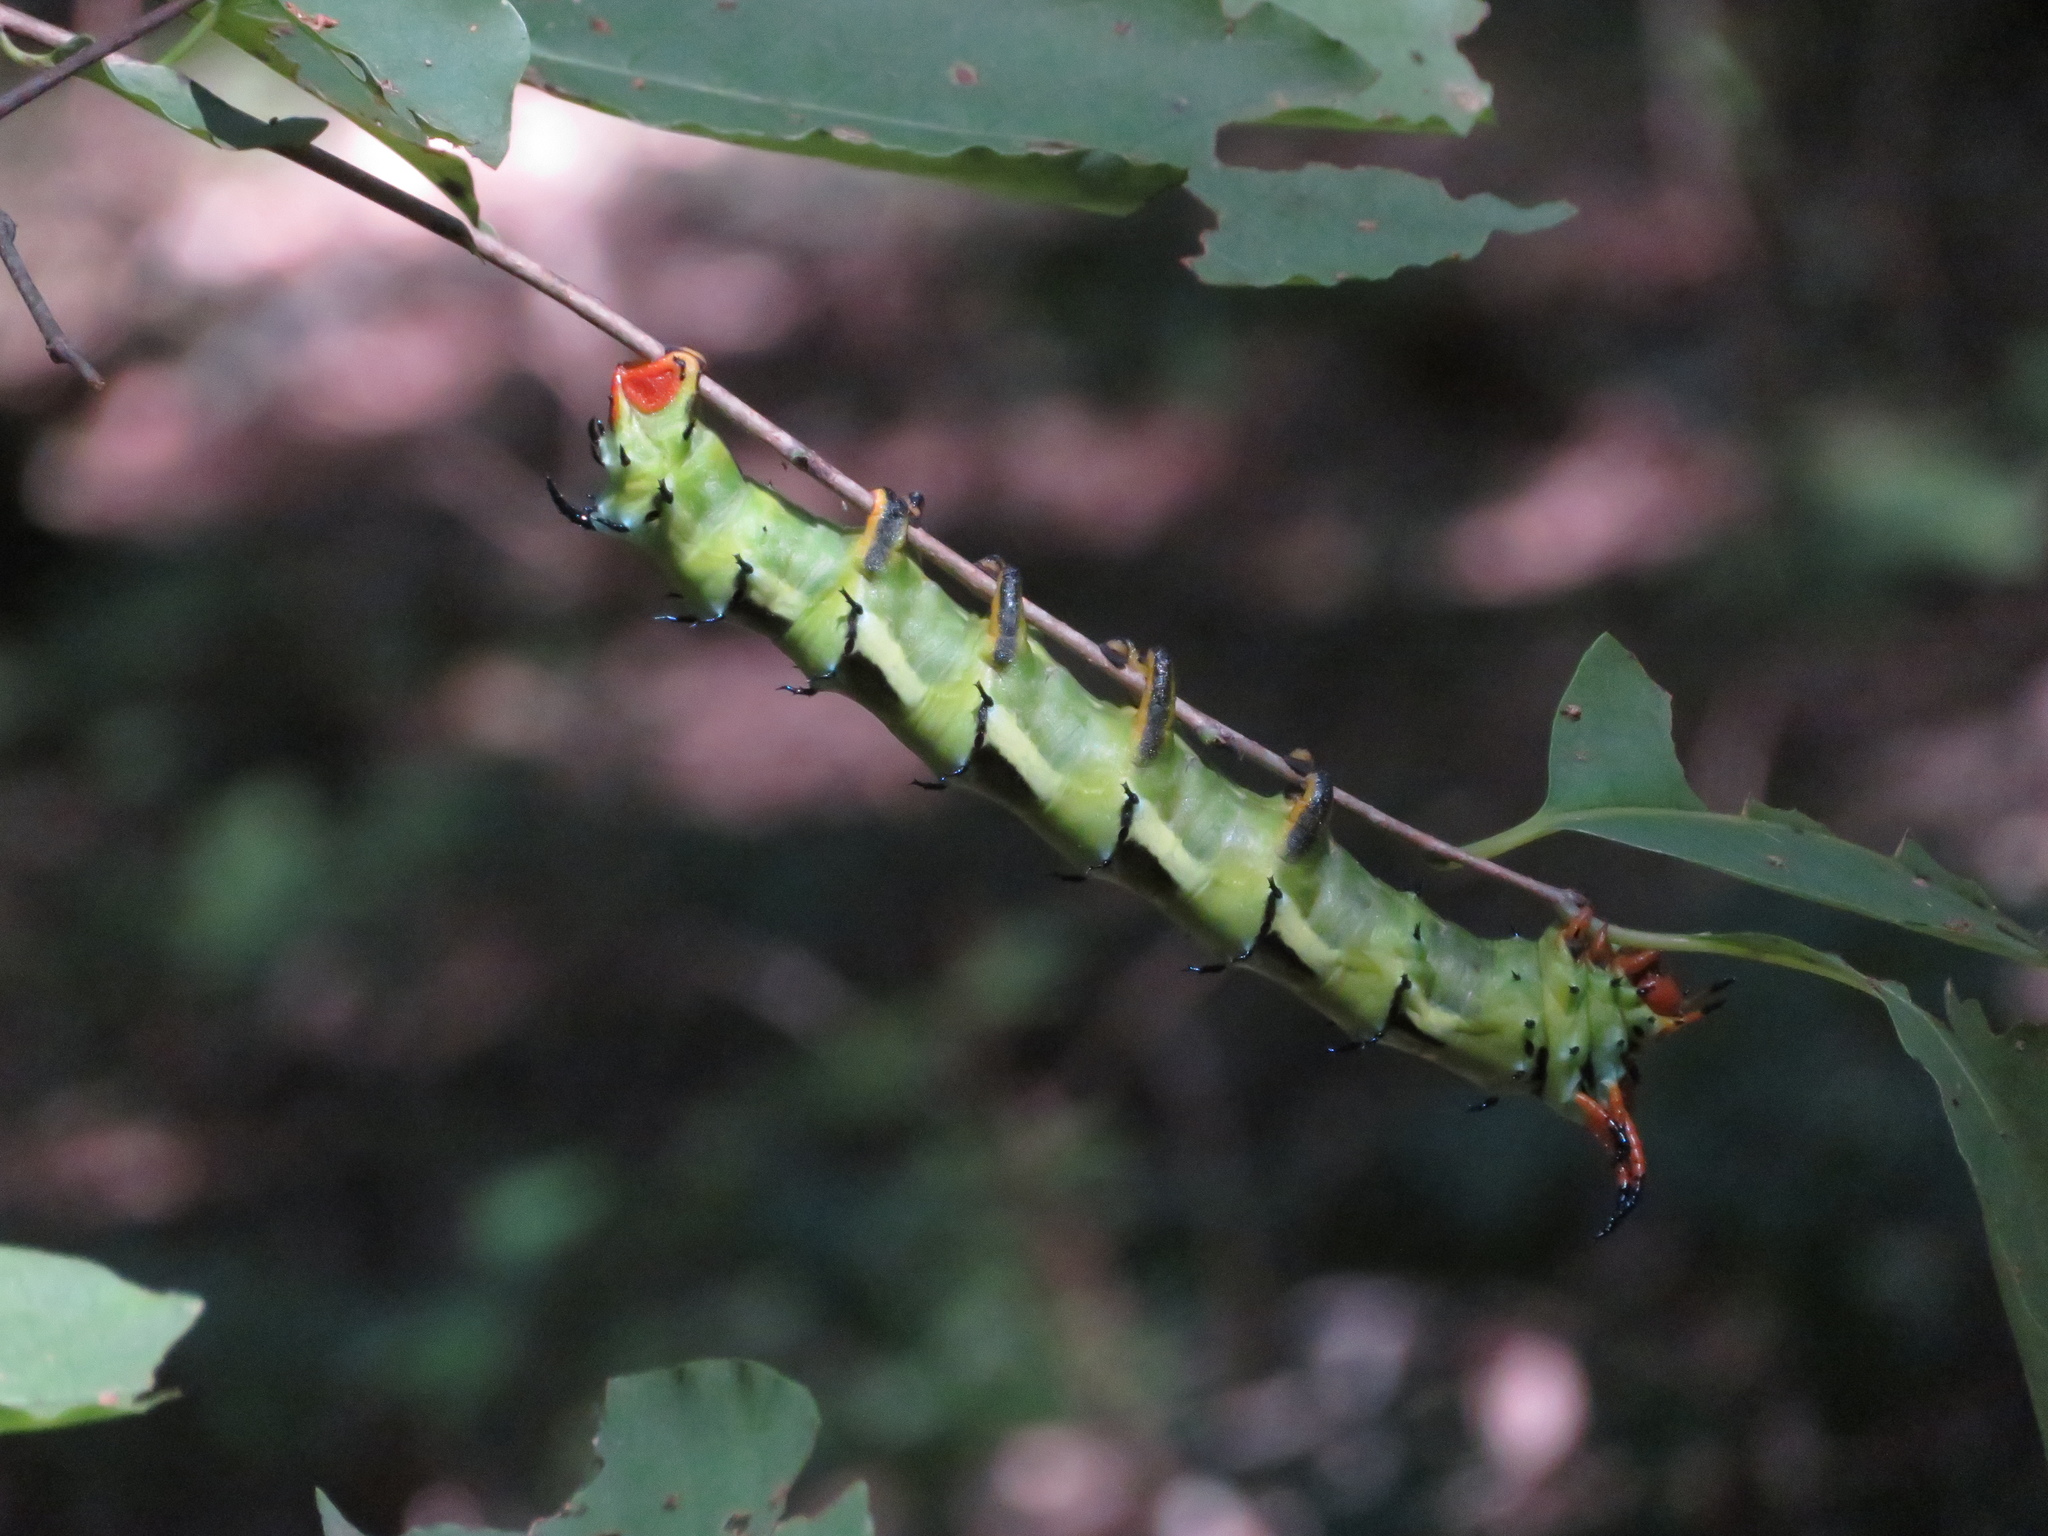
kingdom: Animalia
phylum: Arthropoda
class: Insecta
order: Lepidoptera
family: Saturniidae
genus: Citheronia
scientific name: Citheronia regalis
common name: Hickory horned devil
